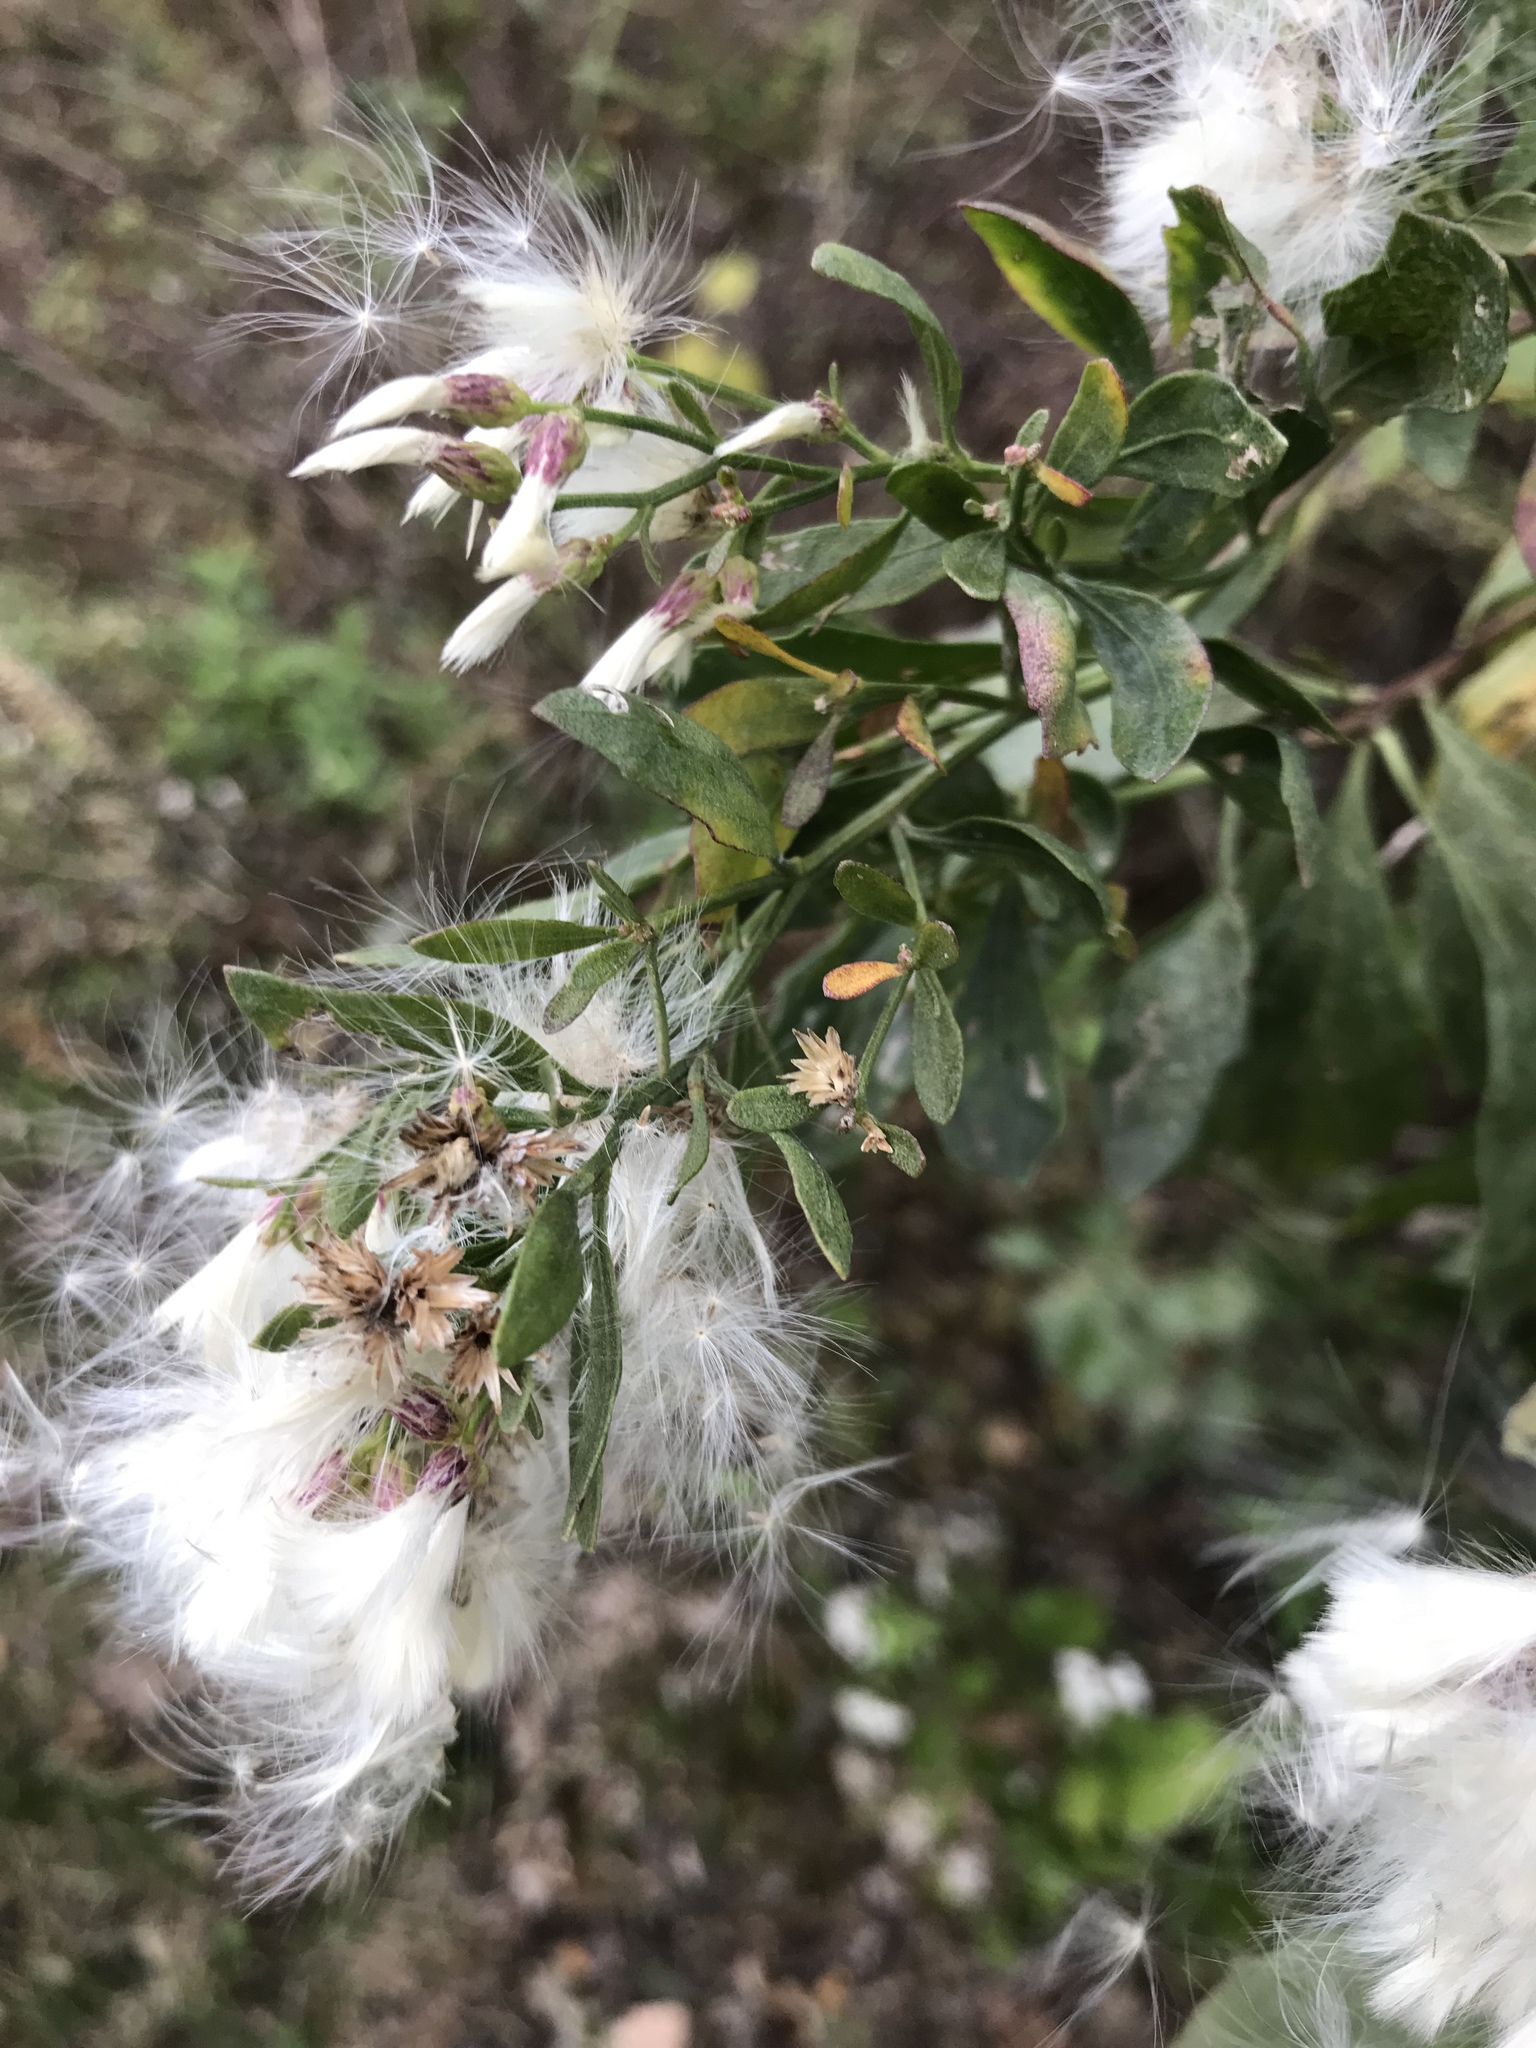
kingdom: Plantae
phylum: Tracheophyta
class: Magnoliopsida
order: Asterales
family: Asteraceae
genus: Baccharis
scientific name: Baccharis halimifolia
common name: Eastern baccharis
